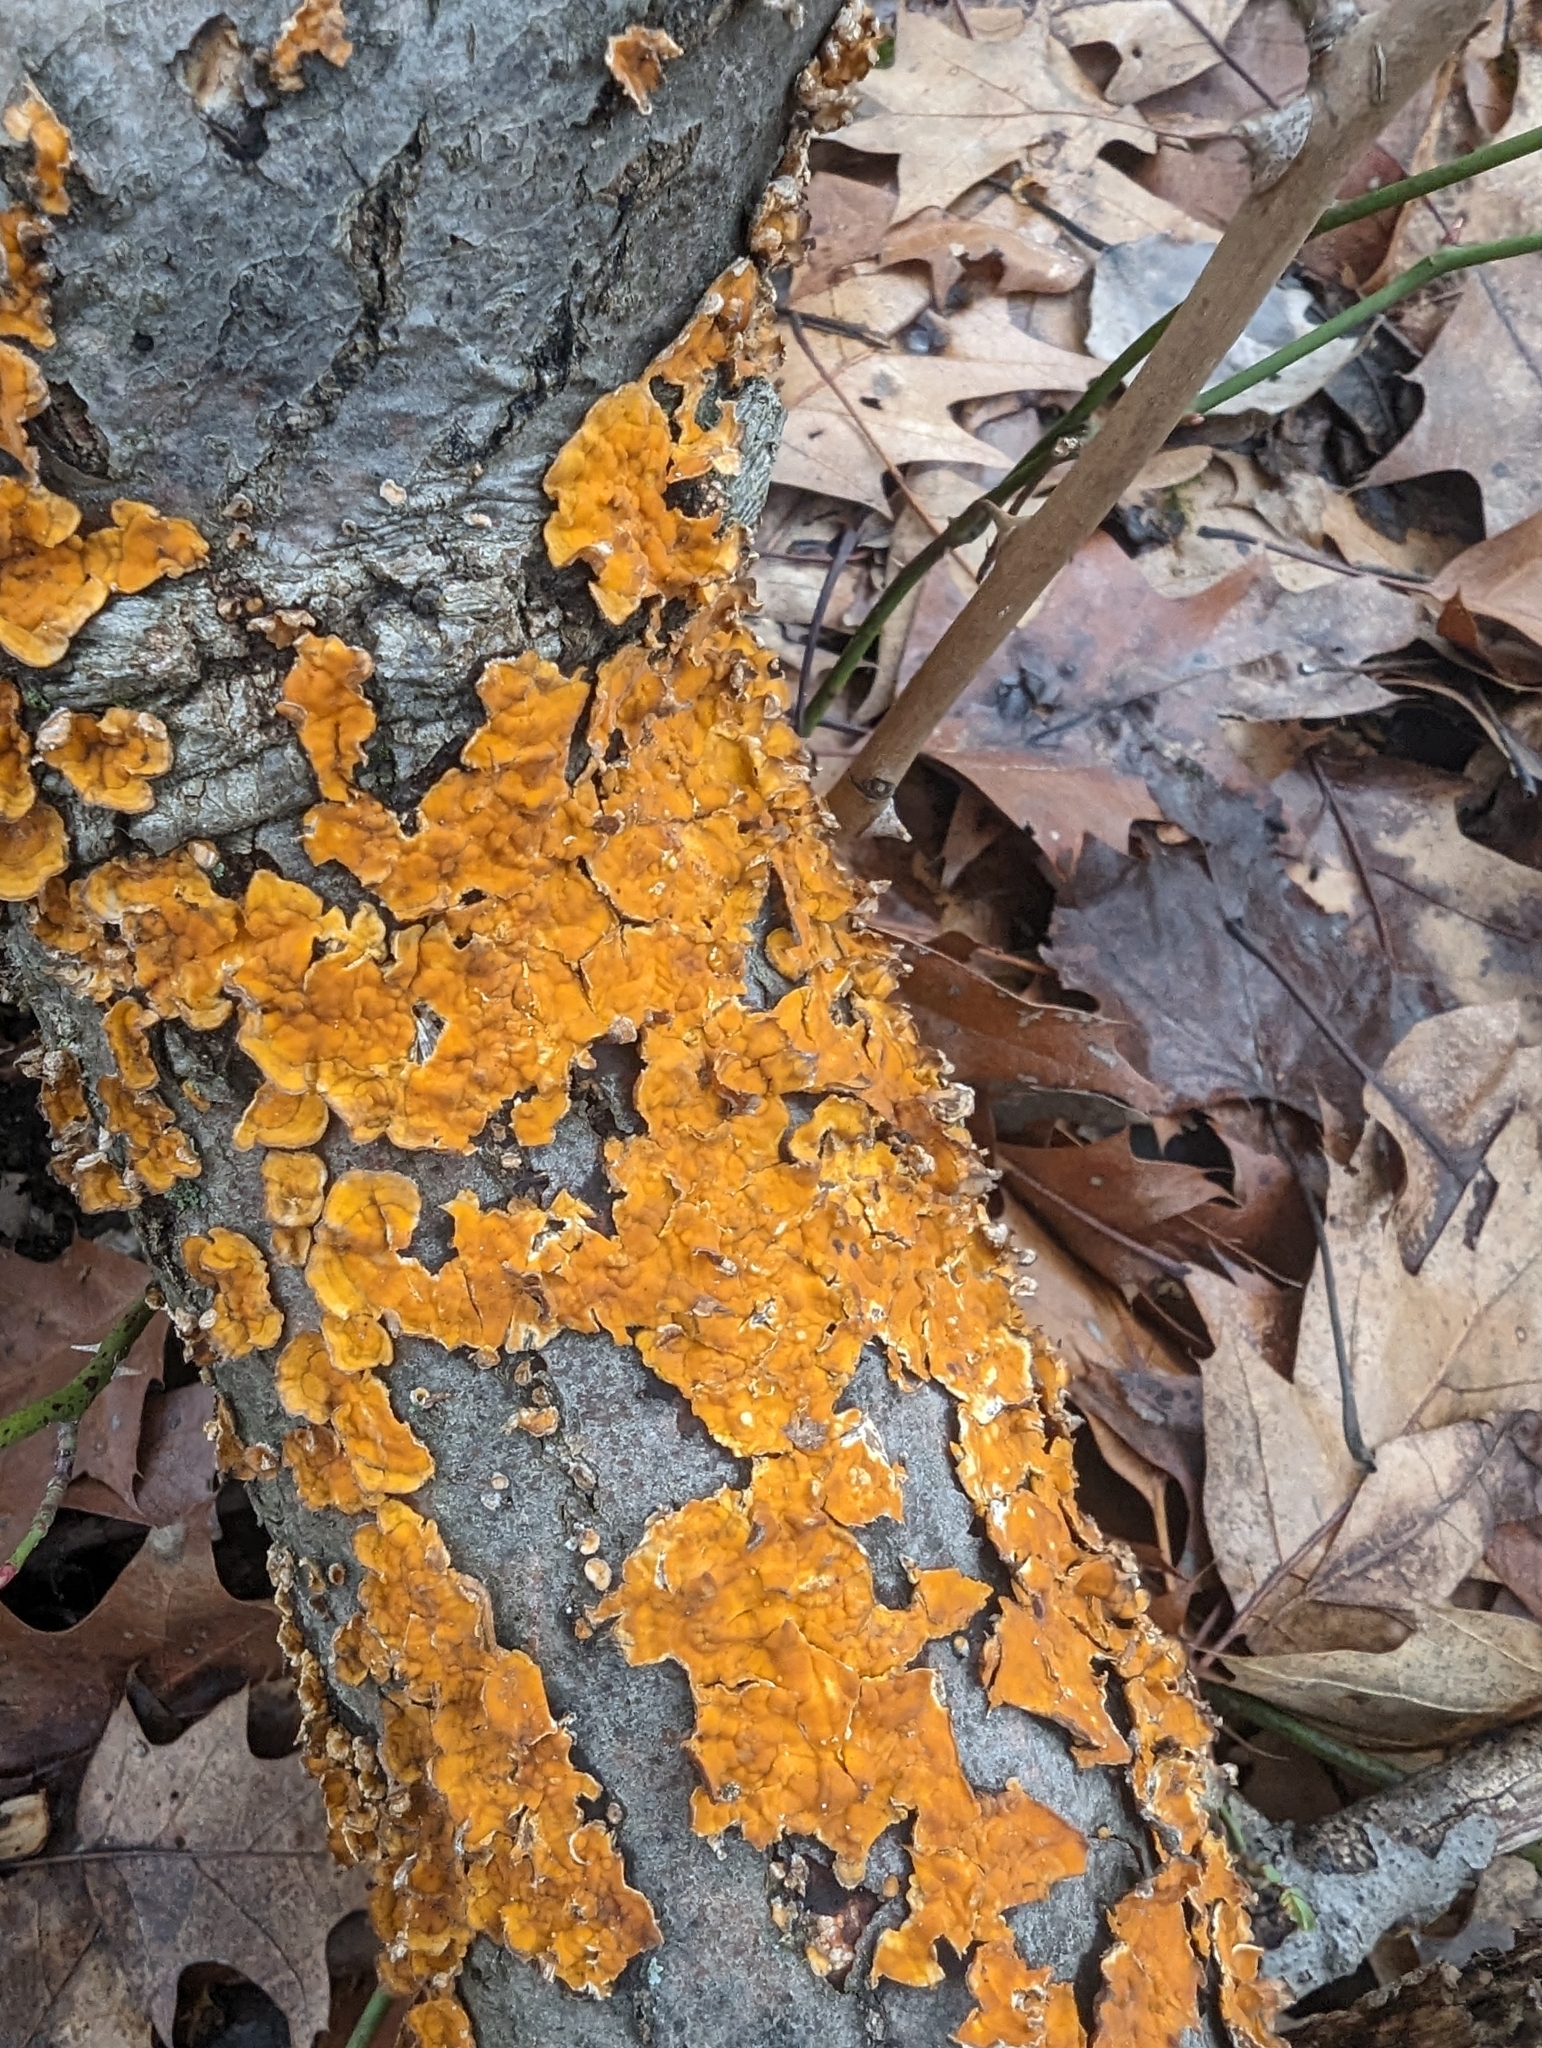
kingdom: Fungi
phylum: Basidiomycota
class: Agaricomycetes
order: Russulales
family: Stereaceae
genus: Stereum
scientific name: Stereum complicatum
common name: Crowded parchment
